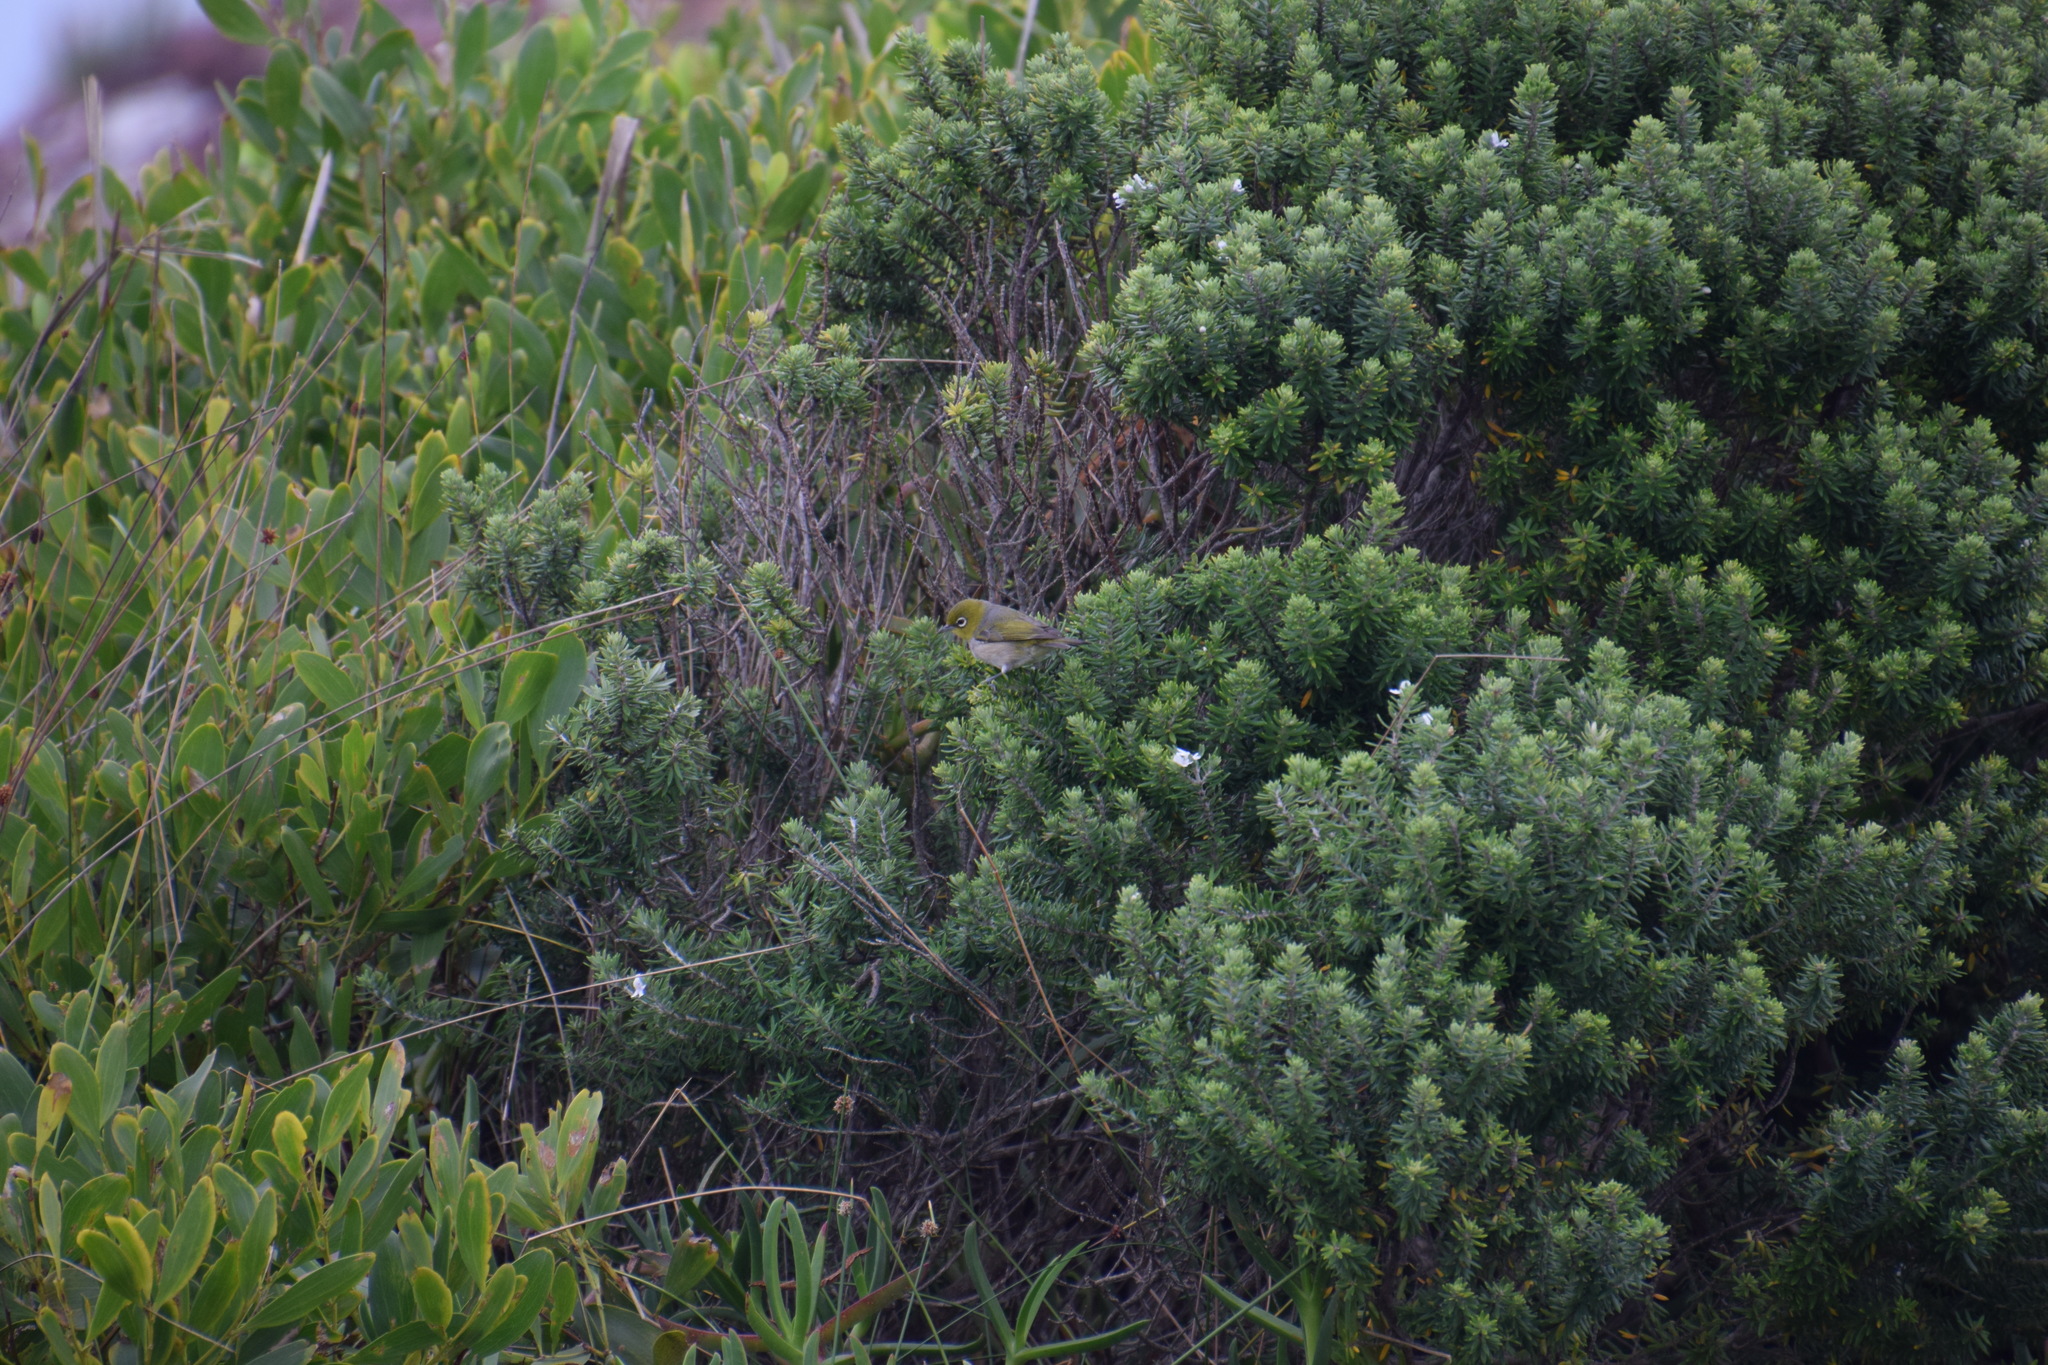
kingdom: Animalia
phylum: Chordata
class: Aves
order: Passeriformes
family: Zosteropidae
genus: Zosterops
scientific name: Zosterops lateralis
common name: Silvereye
